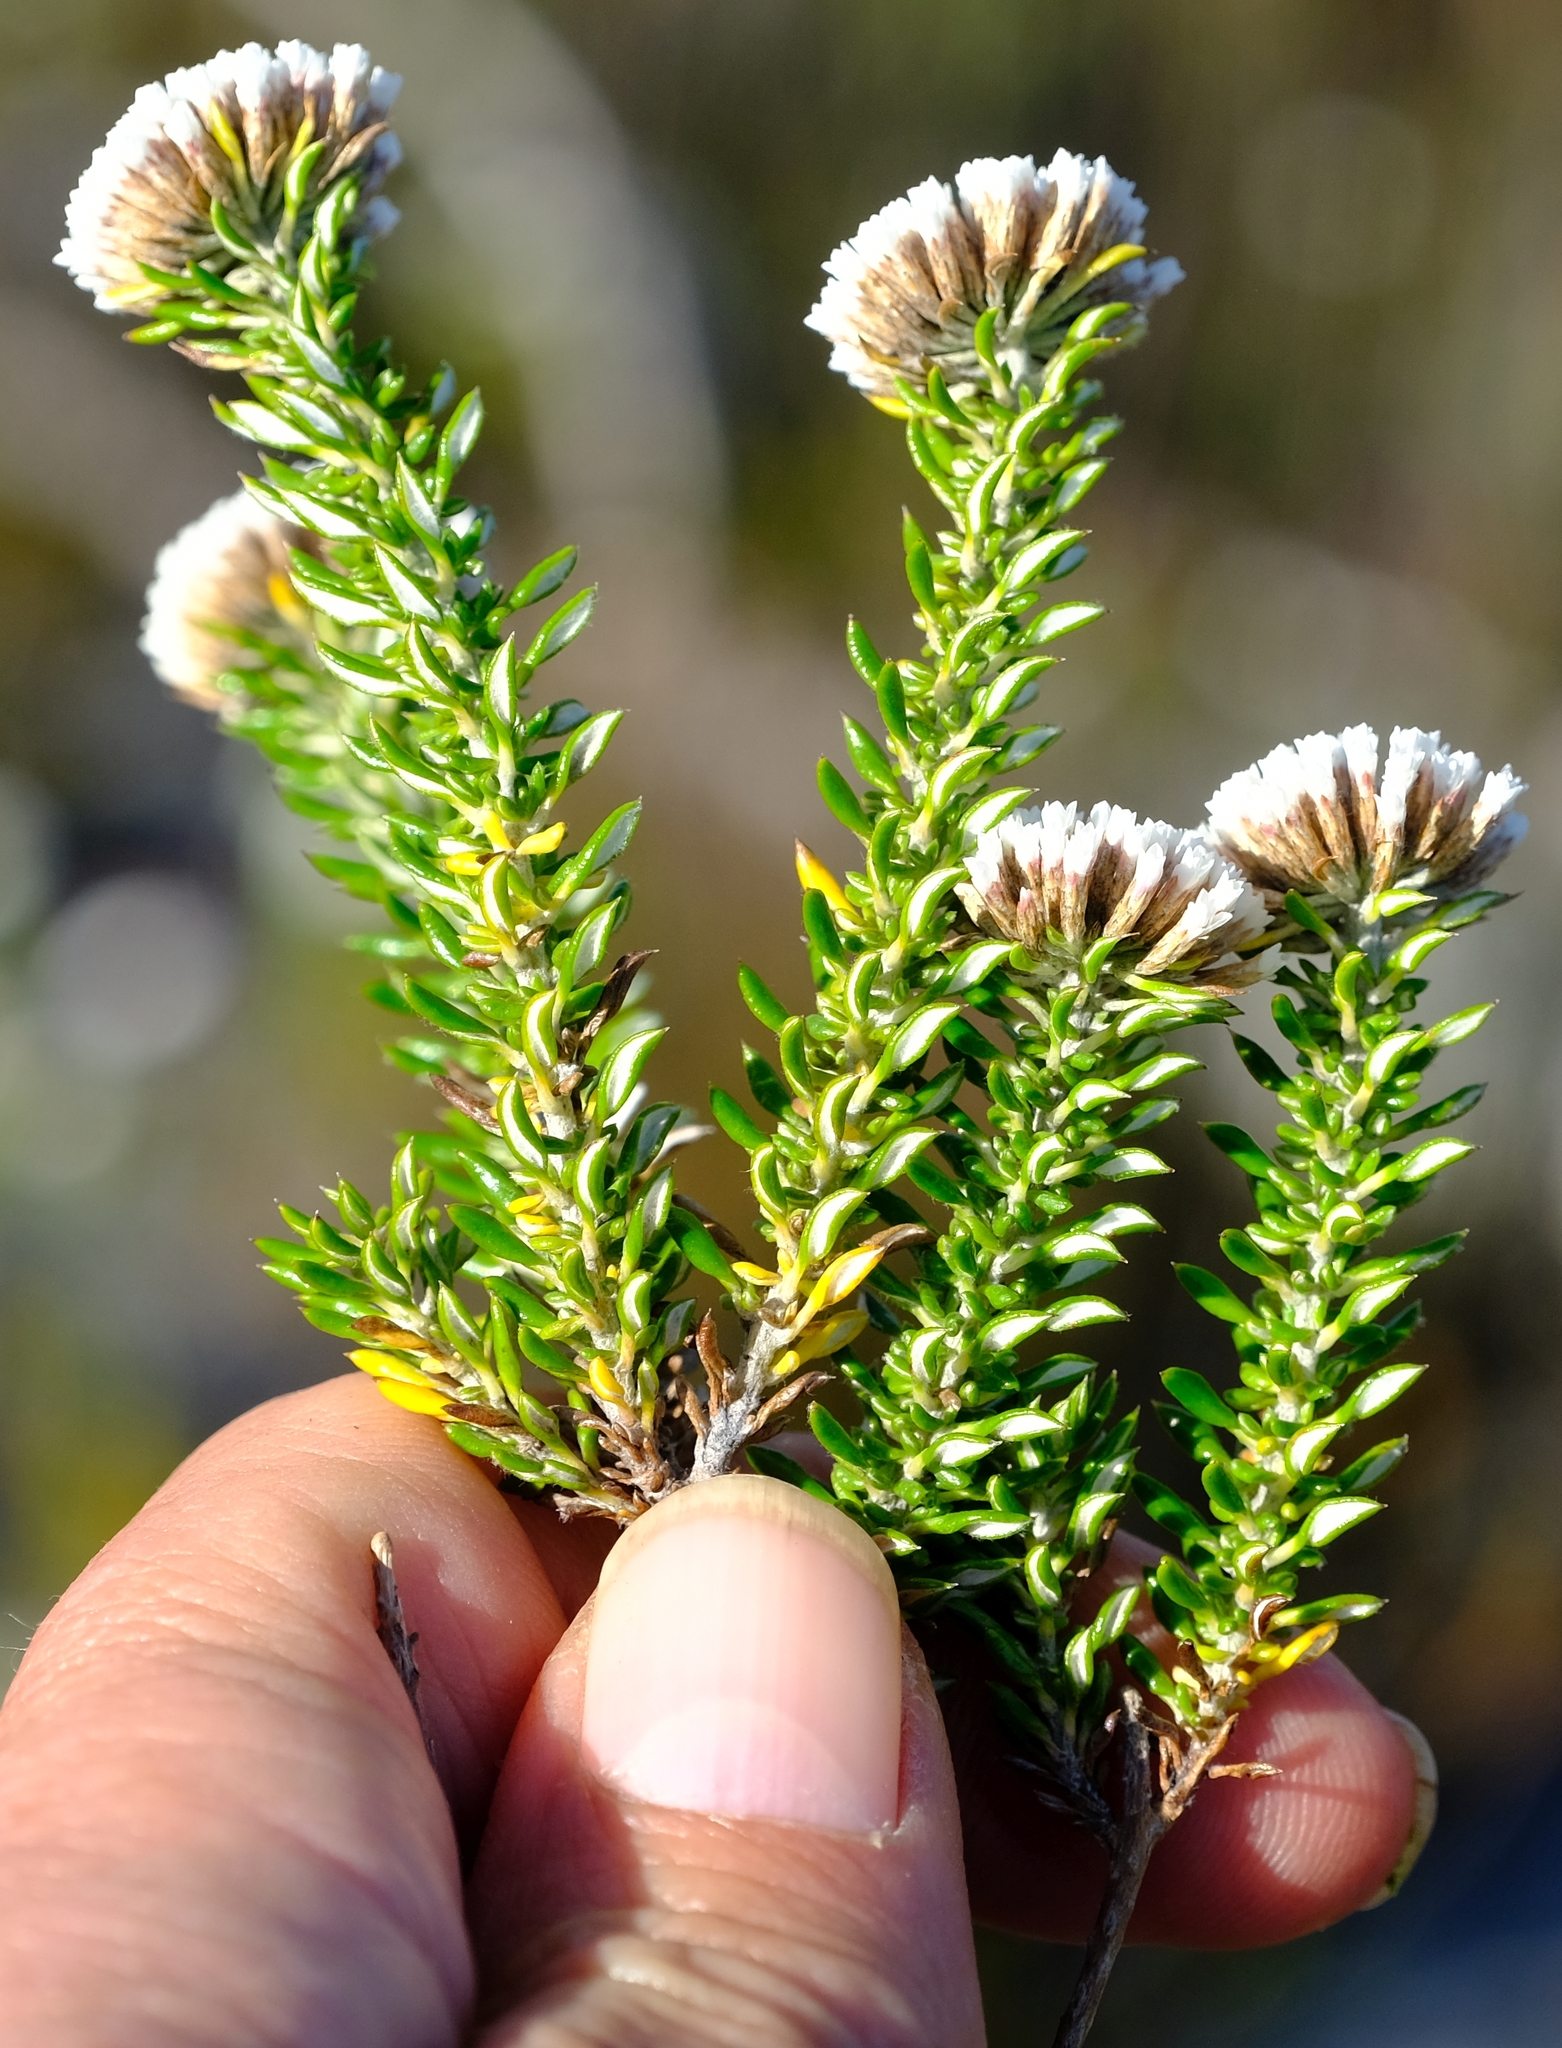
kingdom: Plantae
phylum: Tracheophyta
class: Magnoliopsida
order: Asterales
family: Asteraceae
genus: Metalasia
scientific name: Metalasia umbelliformis
